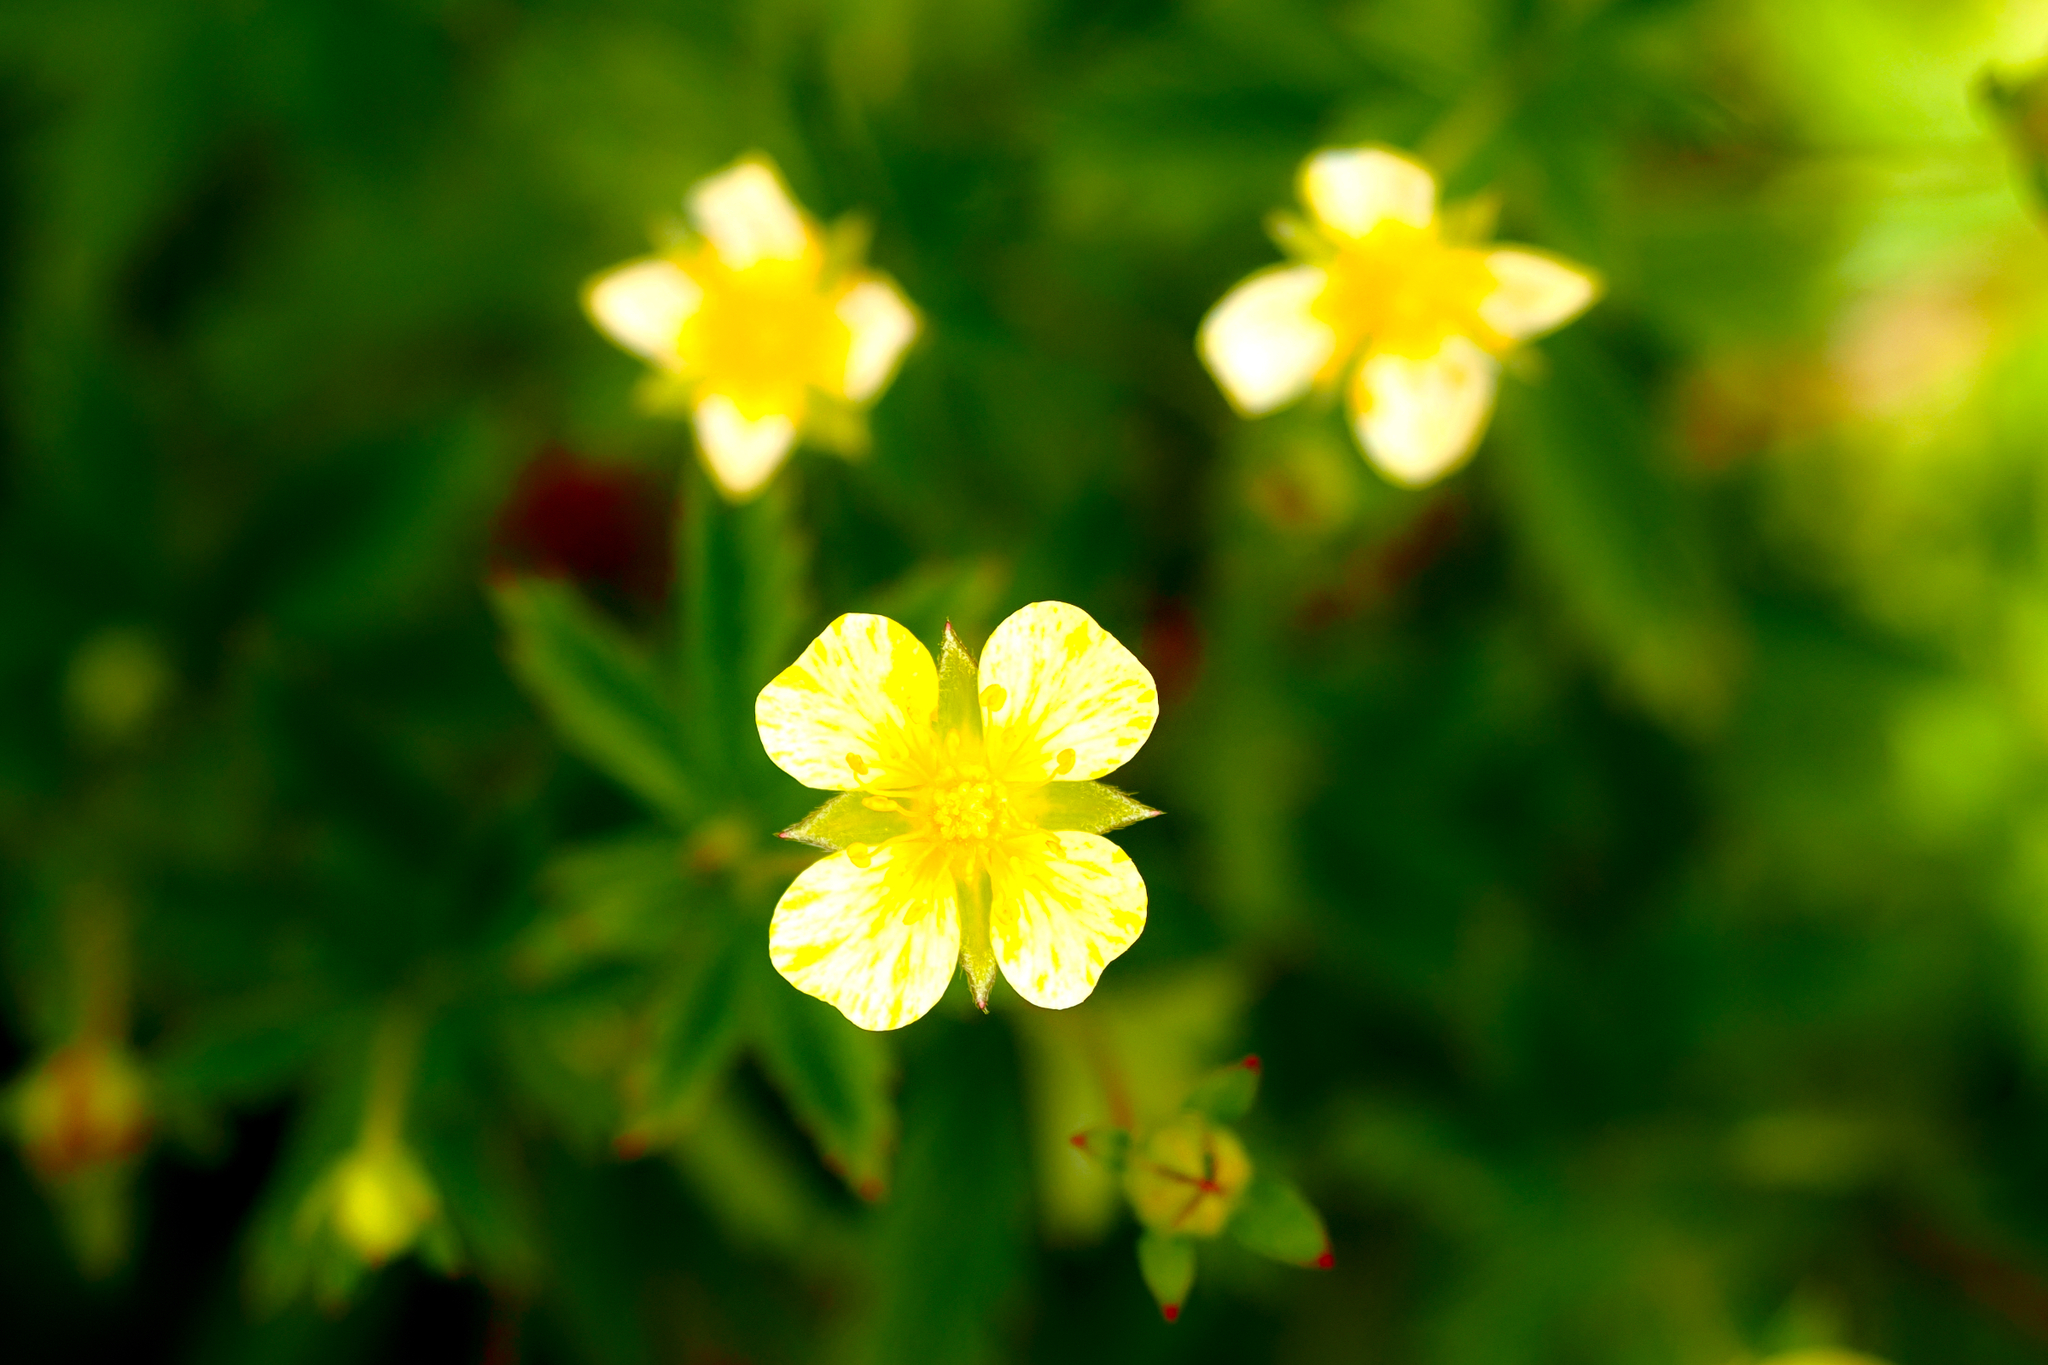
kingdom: Plantae
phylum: Tracheophyta
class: Magnoliopsida
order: Rosales
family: Rosaceae
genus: Potentilla
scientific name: Potentilla erecta
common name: Tormentil
